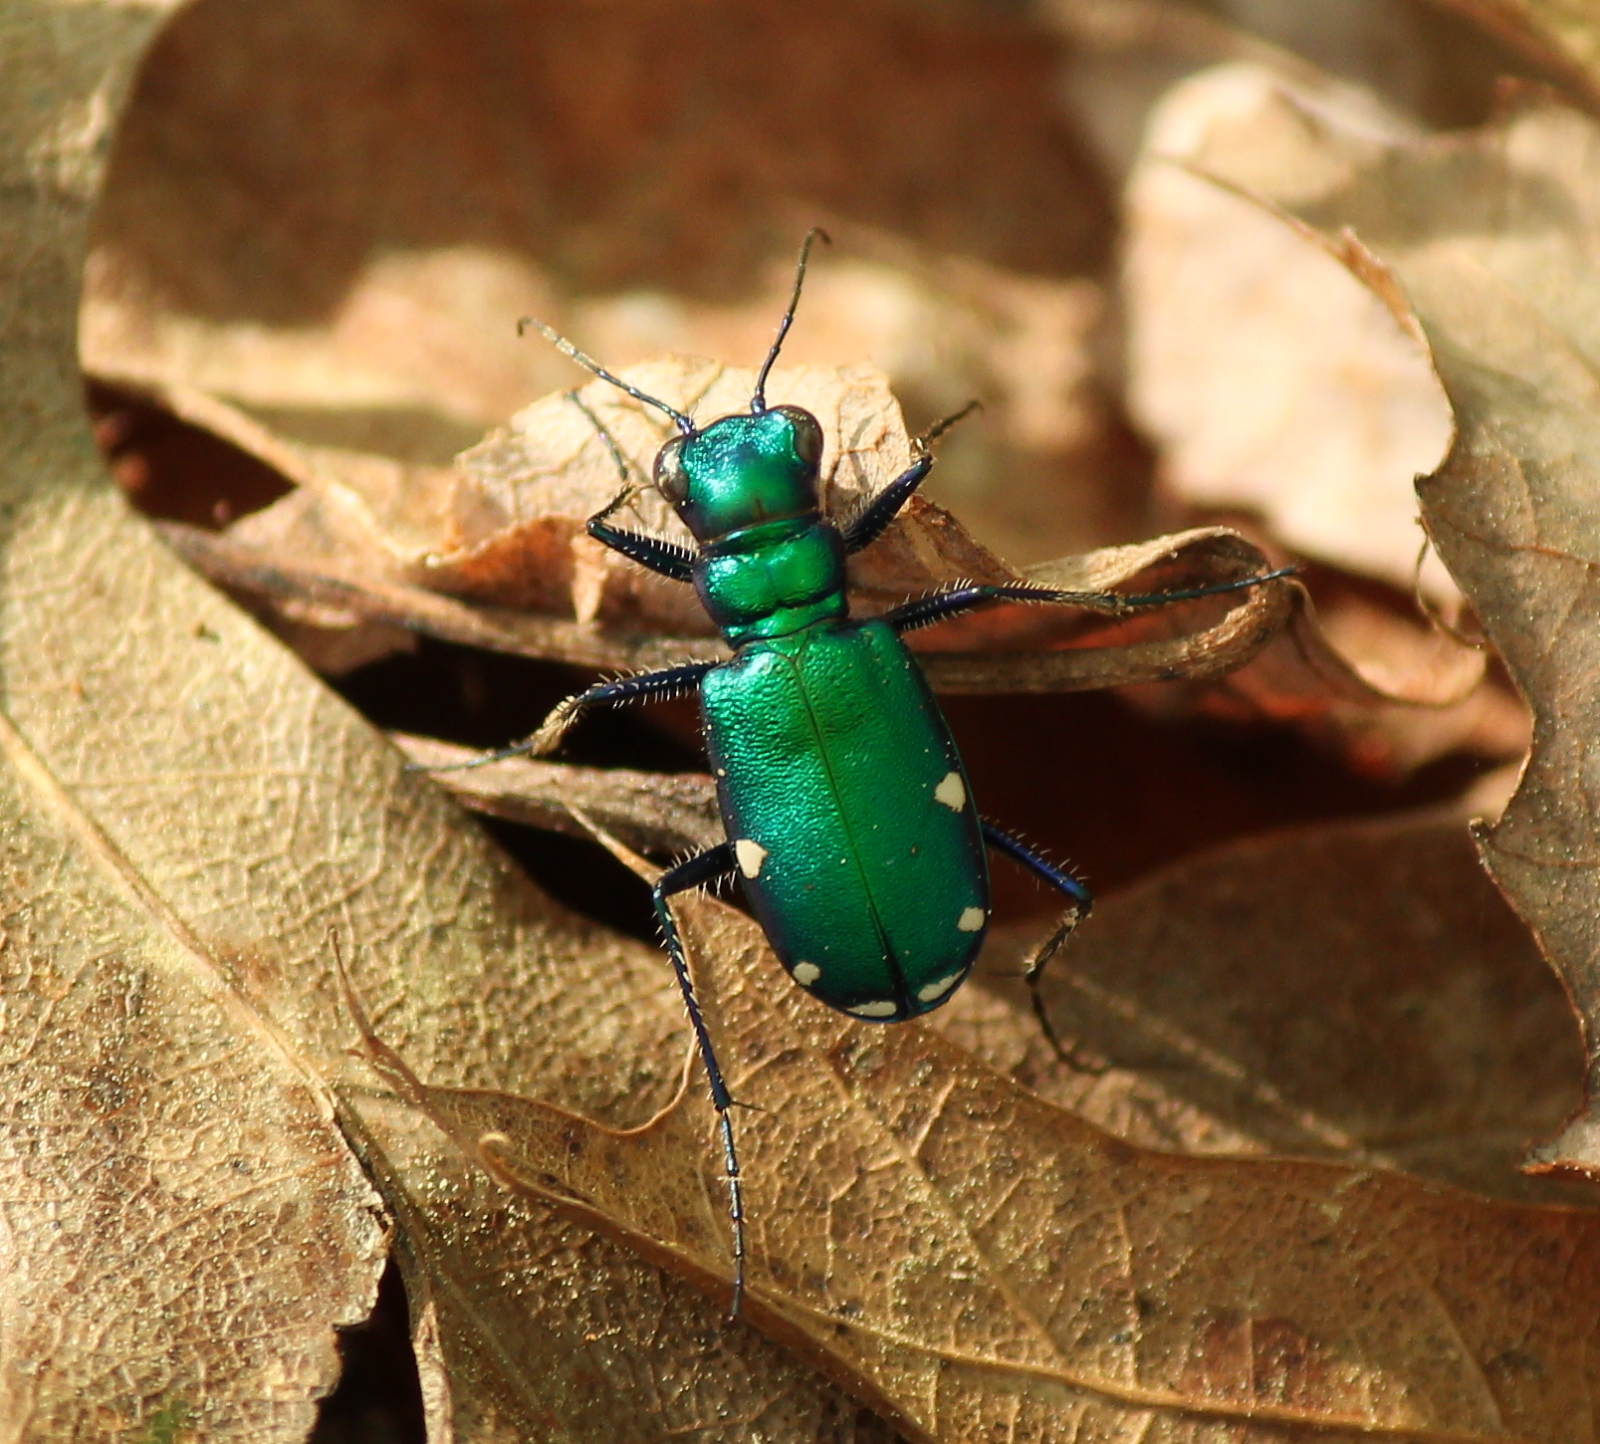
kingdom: Animalia
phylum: Arthropoda
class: Insecta
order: Coleoptera
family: Carabidae
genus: Cicindela
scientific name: Cicindela sexguttata
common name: Six-spotted tiger beetle
